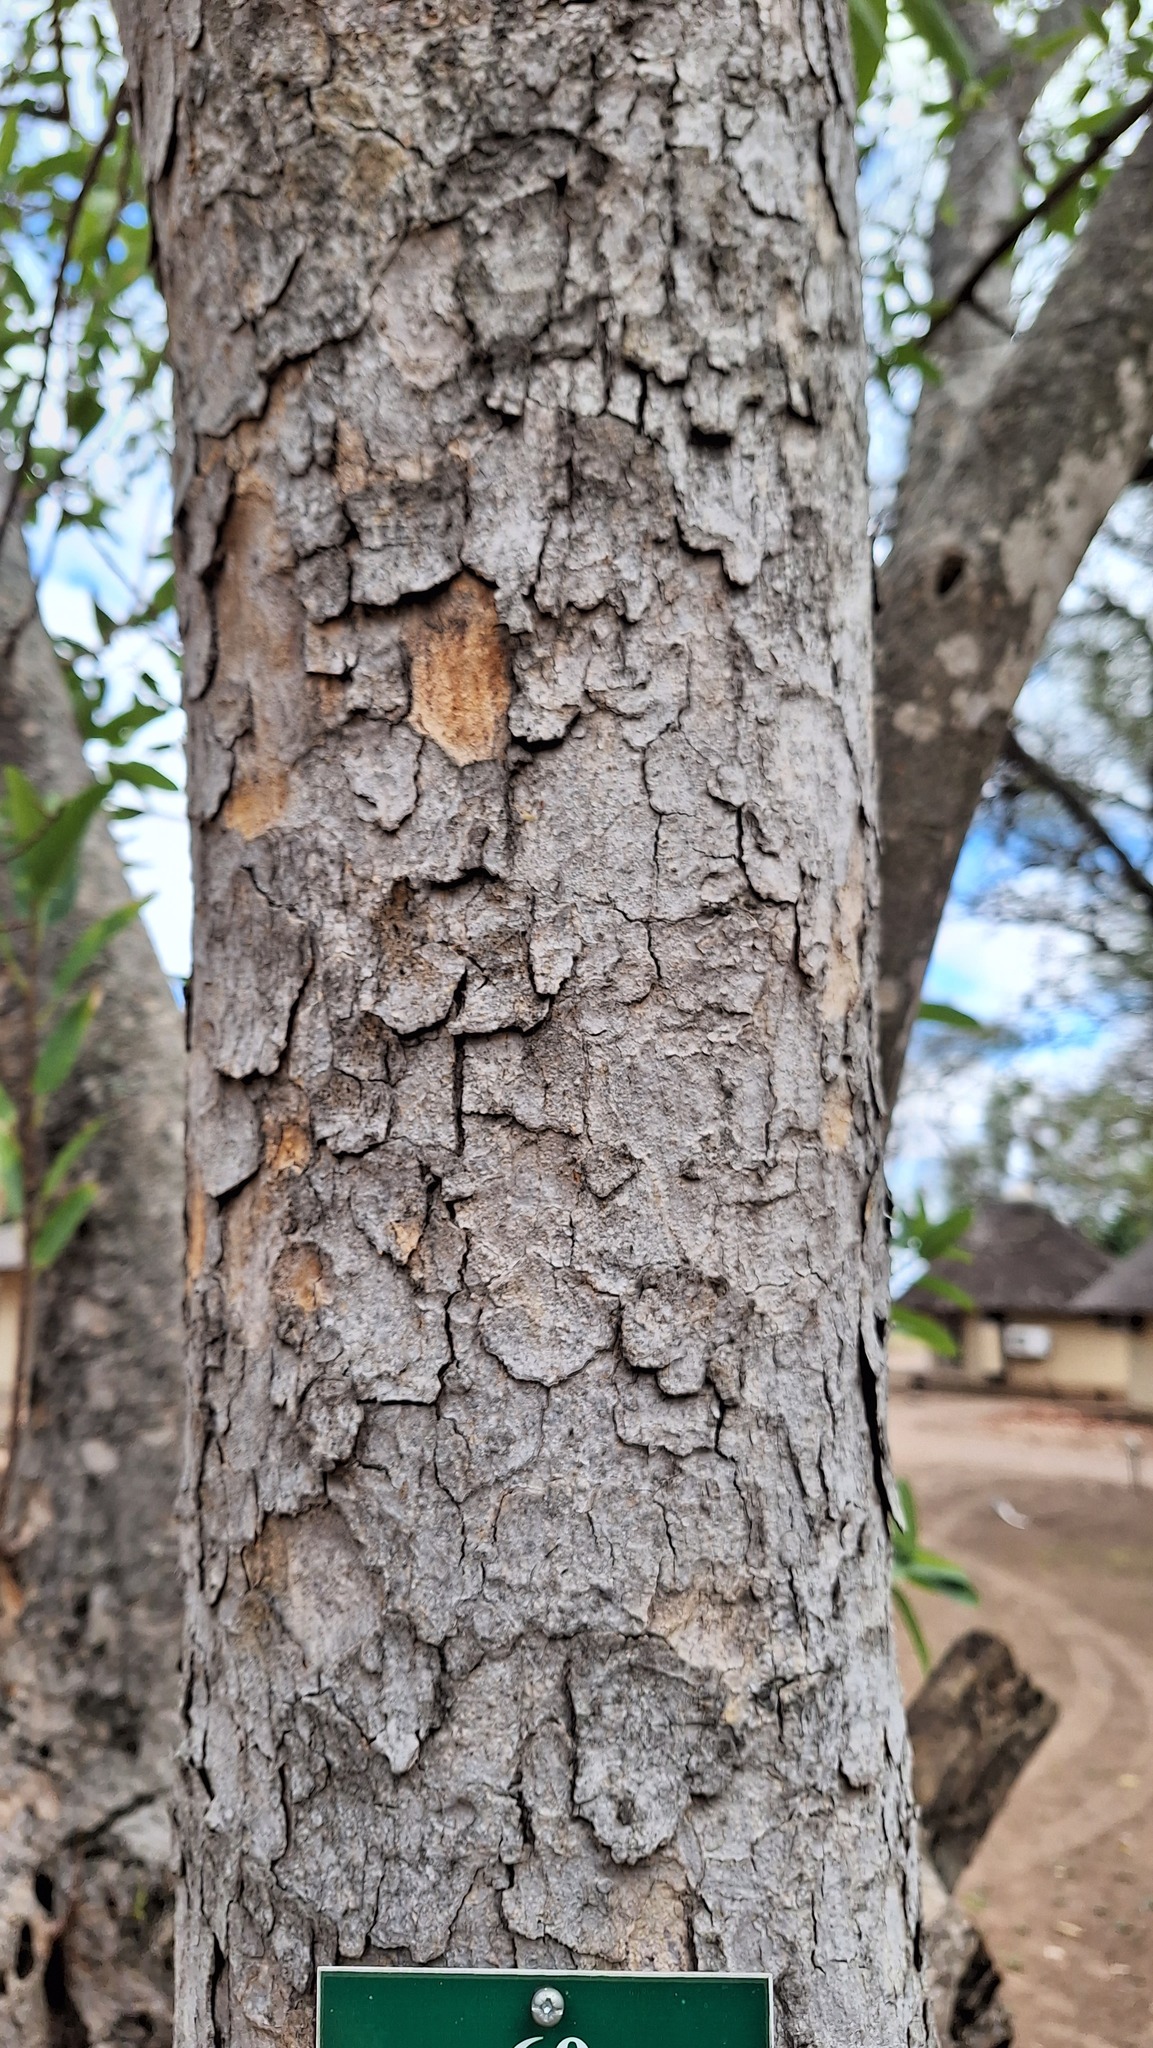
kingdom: Plantae
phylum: Tracheophyta
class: Magnoliopsida
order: Rosales
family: Moraceae
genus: Ficus
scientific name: Ficus salicifolia
